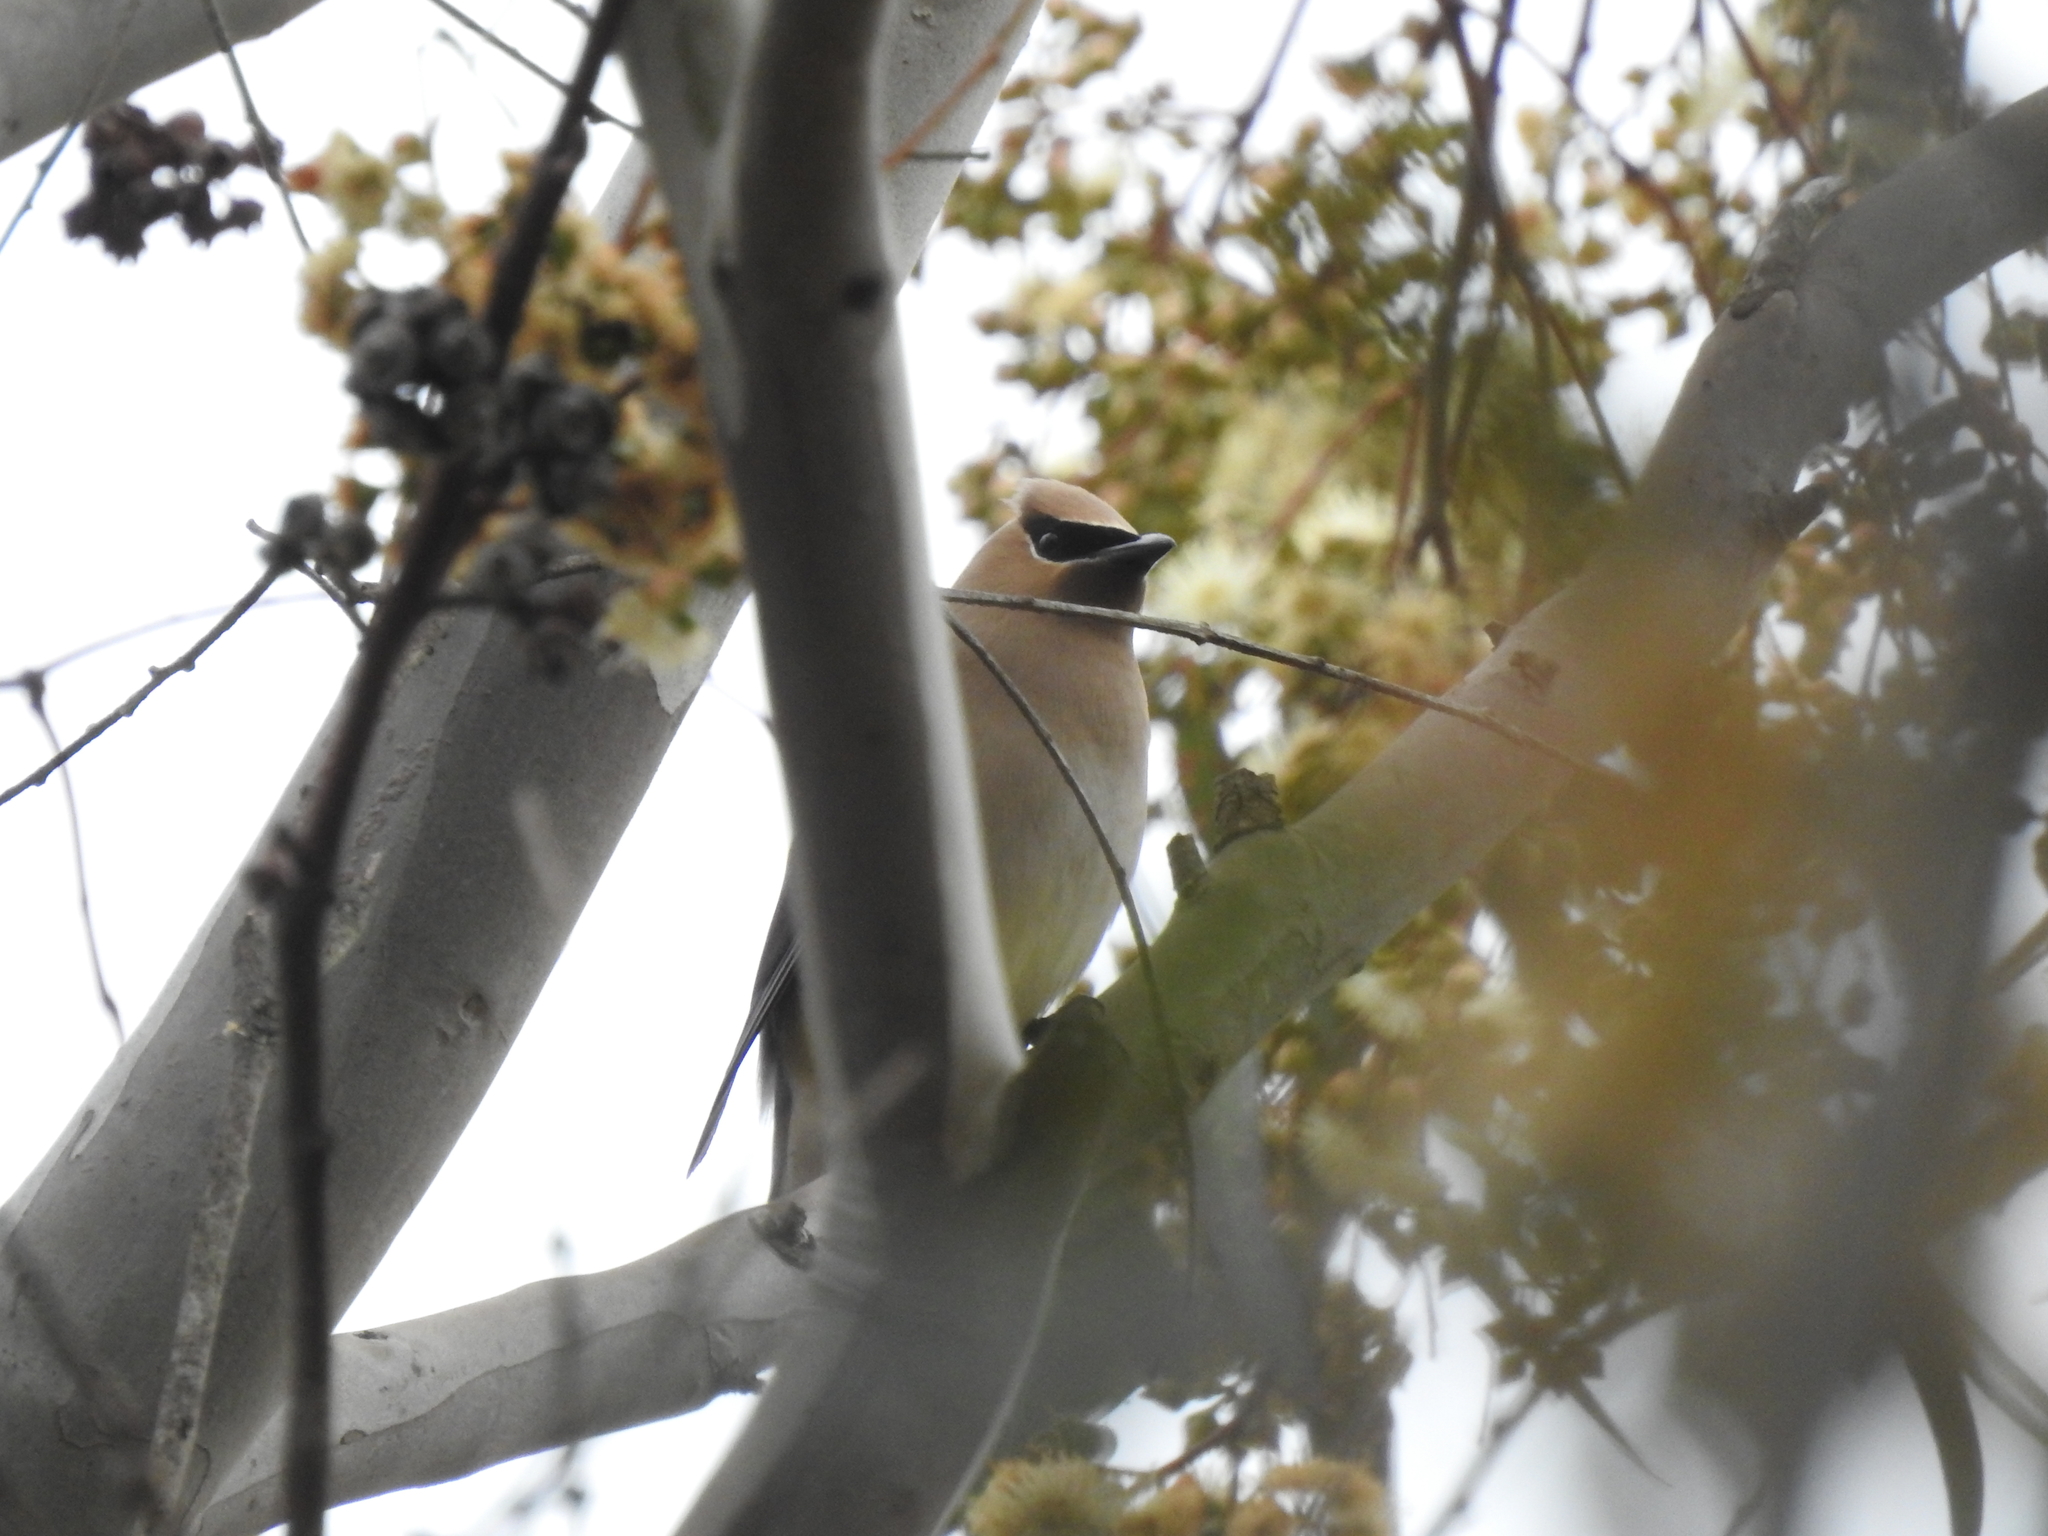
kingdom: Animalia
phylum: Chordata
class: Aves
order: Passeriformes
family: Bombycillidae
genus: Bombycilla
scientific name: Bombycilla cedrorum
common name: Cedar waxwing
